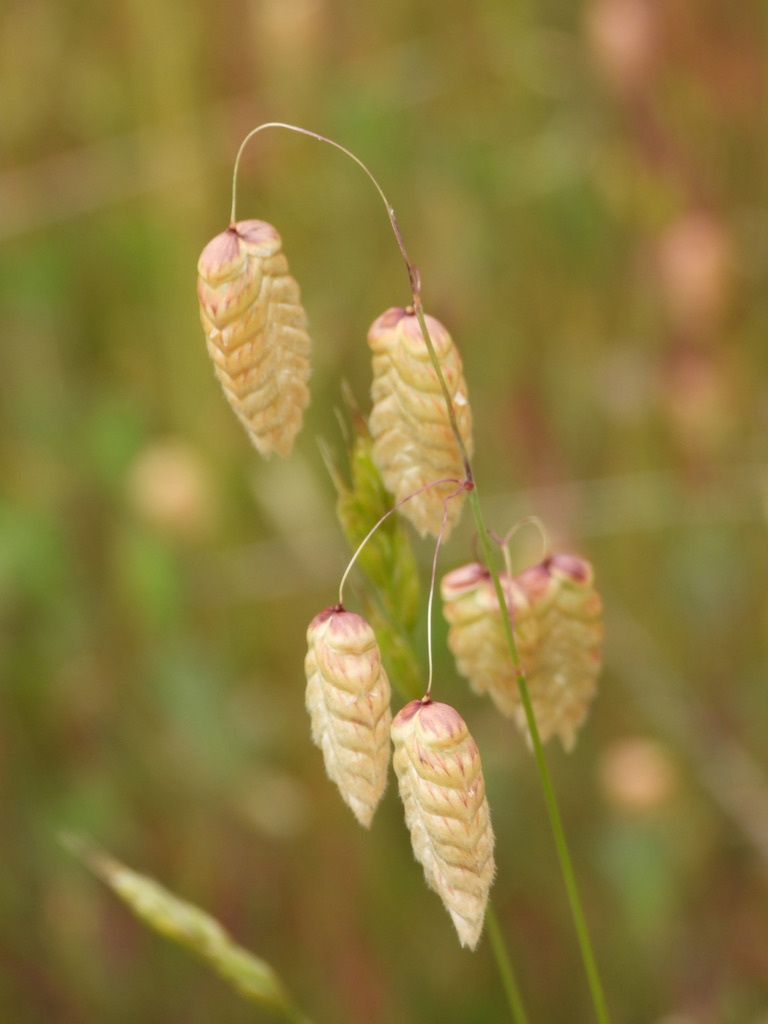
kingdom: Plantae
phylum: Tracheophyta
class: Liliopsida
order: Poales
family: Poaceae
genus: Briza
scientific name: Briza maxima
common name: Big quakinggrass
